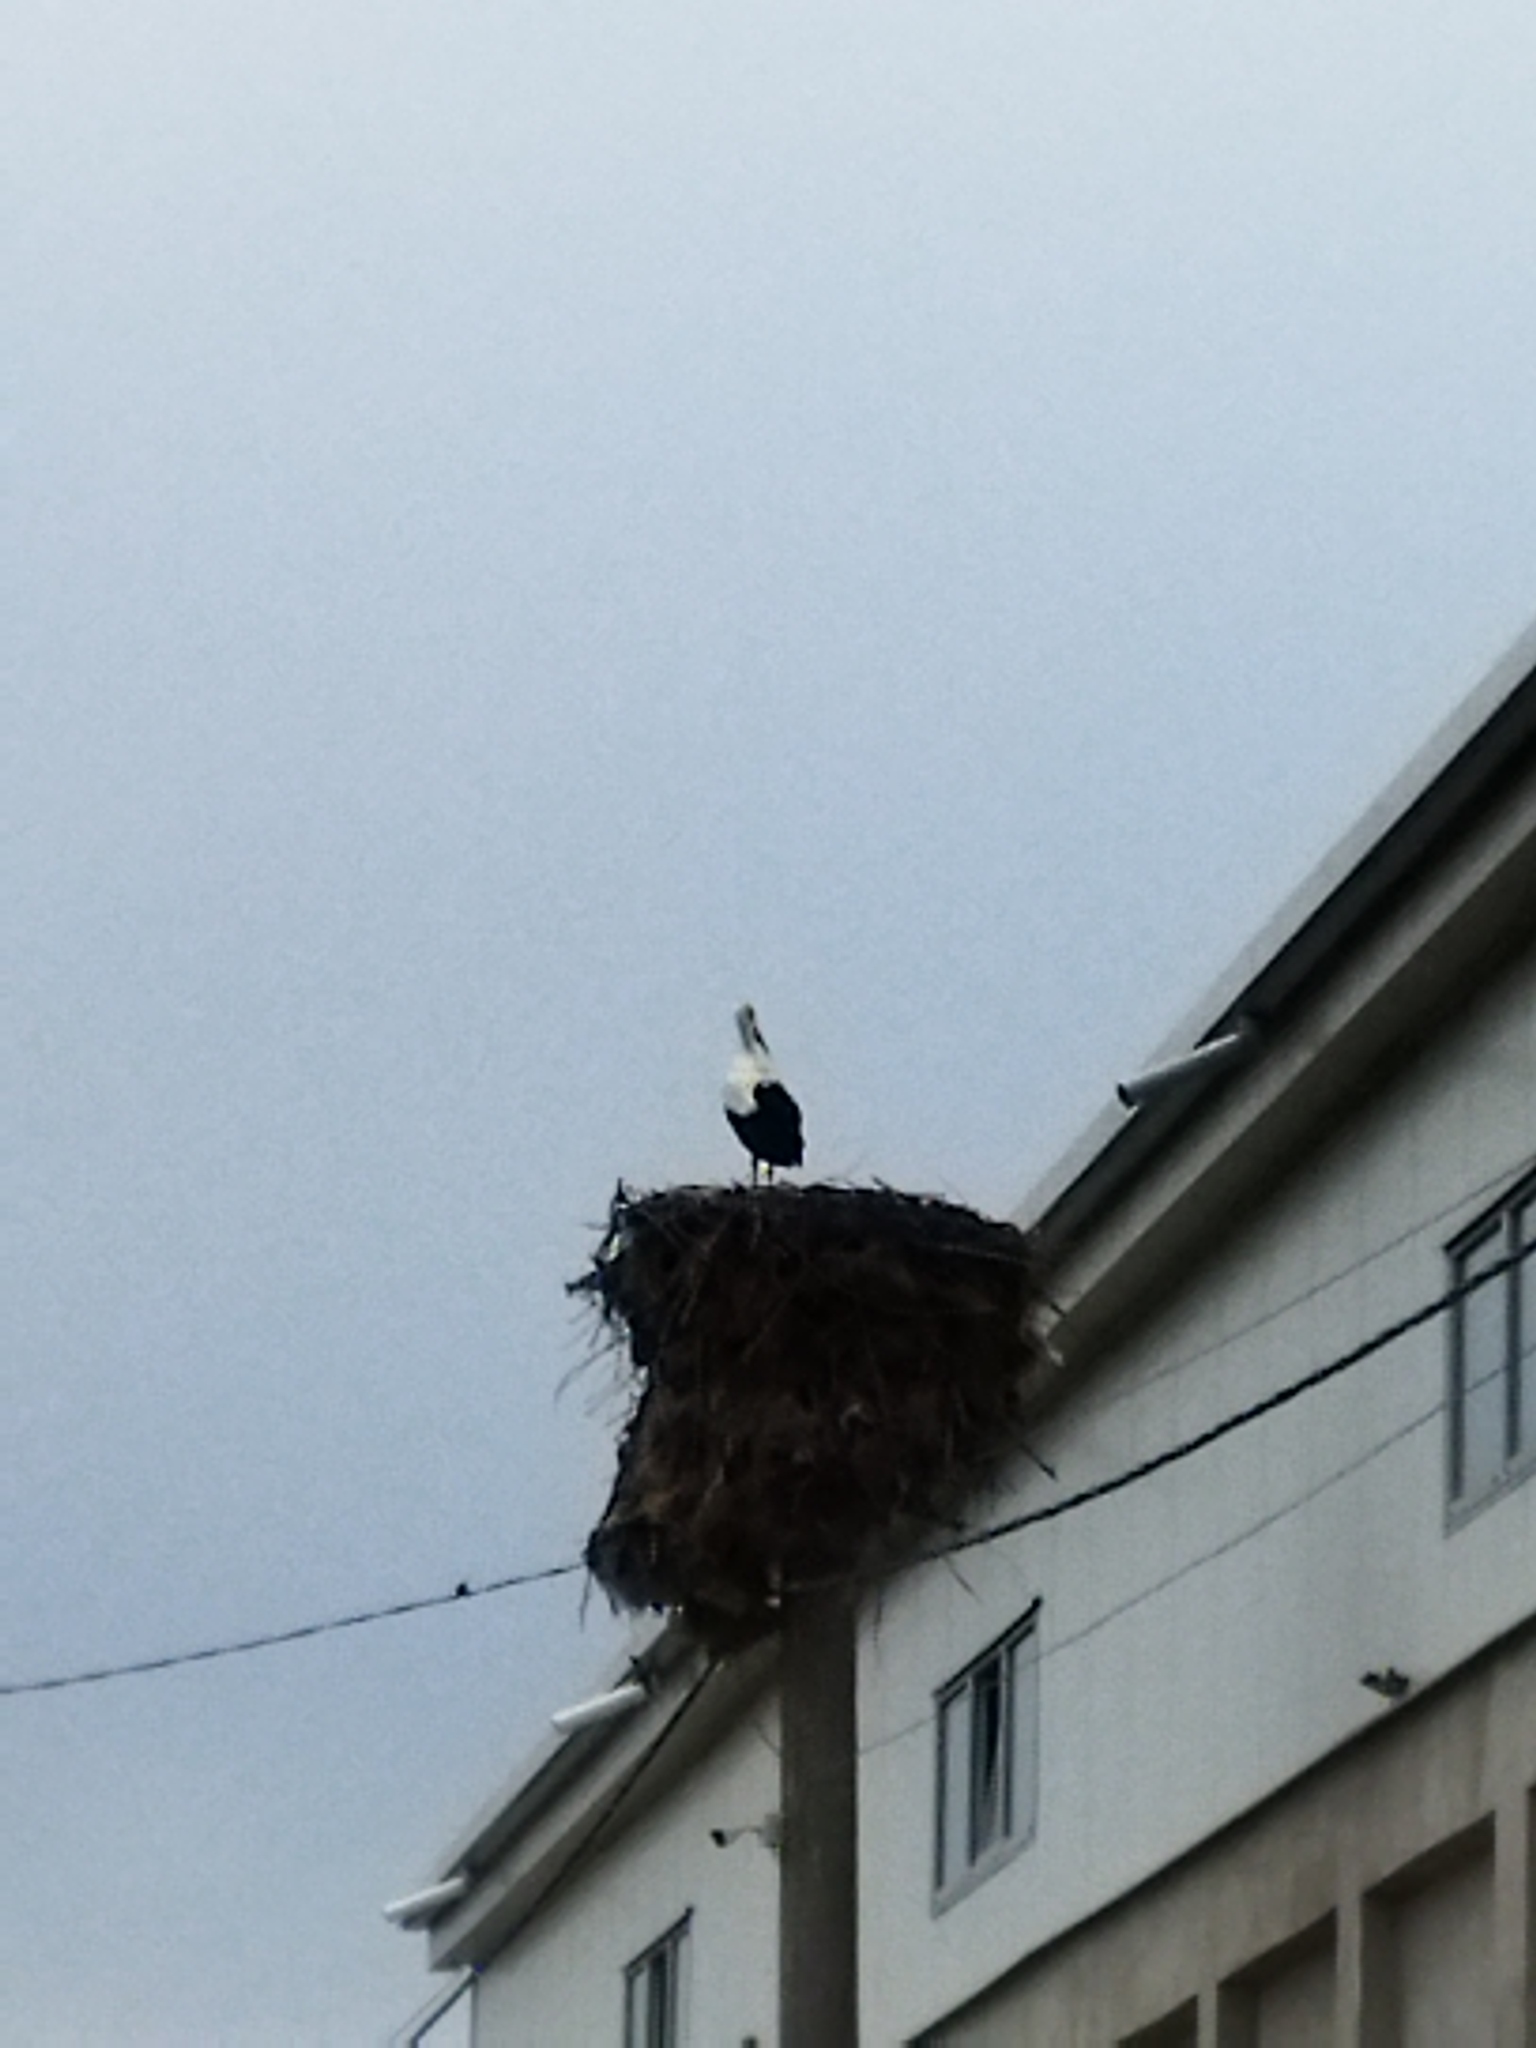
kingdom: Animalia
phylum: Chordata
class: Aves
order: Ciconiiformes
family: Ciconiidae
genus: Ciconia
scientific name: Ciconia ciconia
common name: White stork
